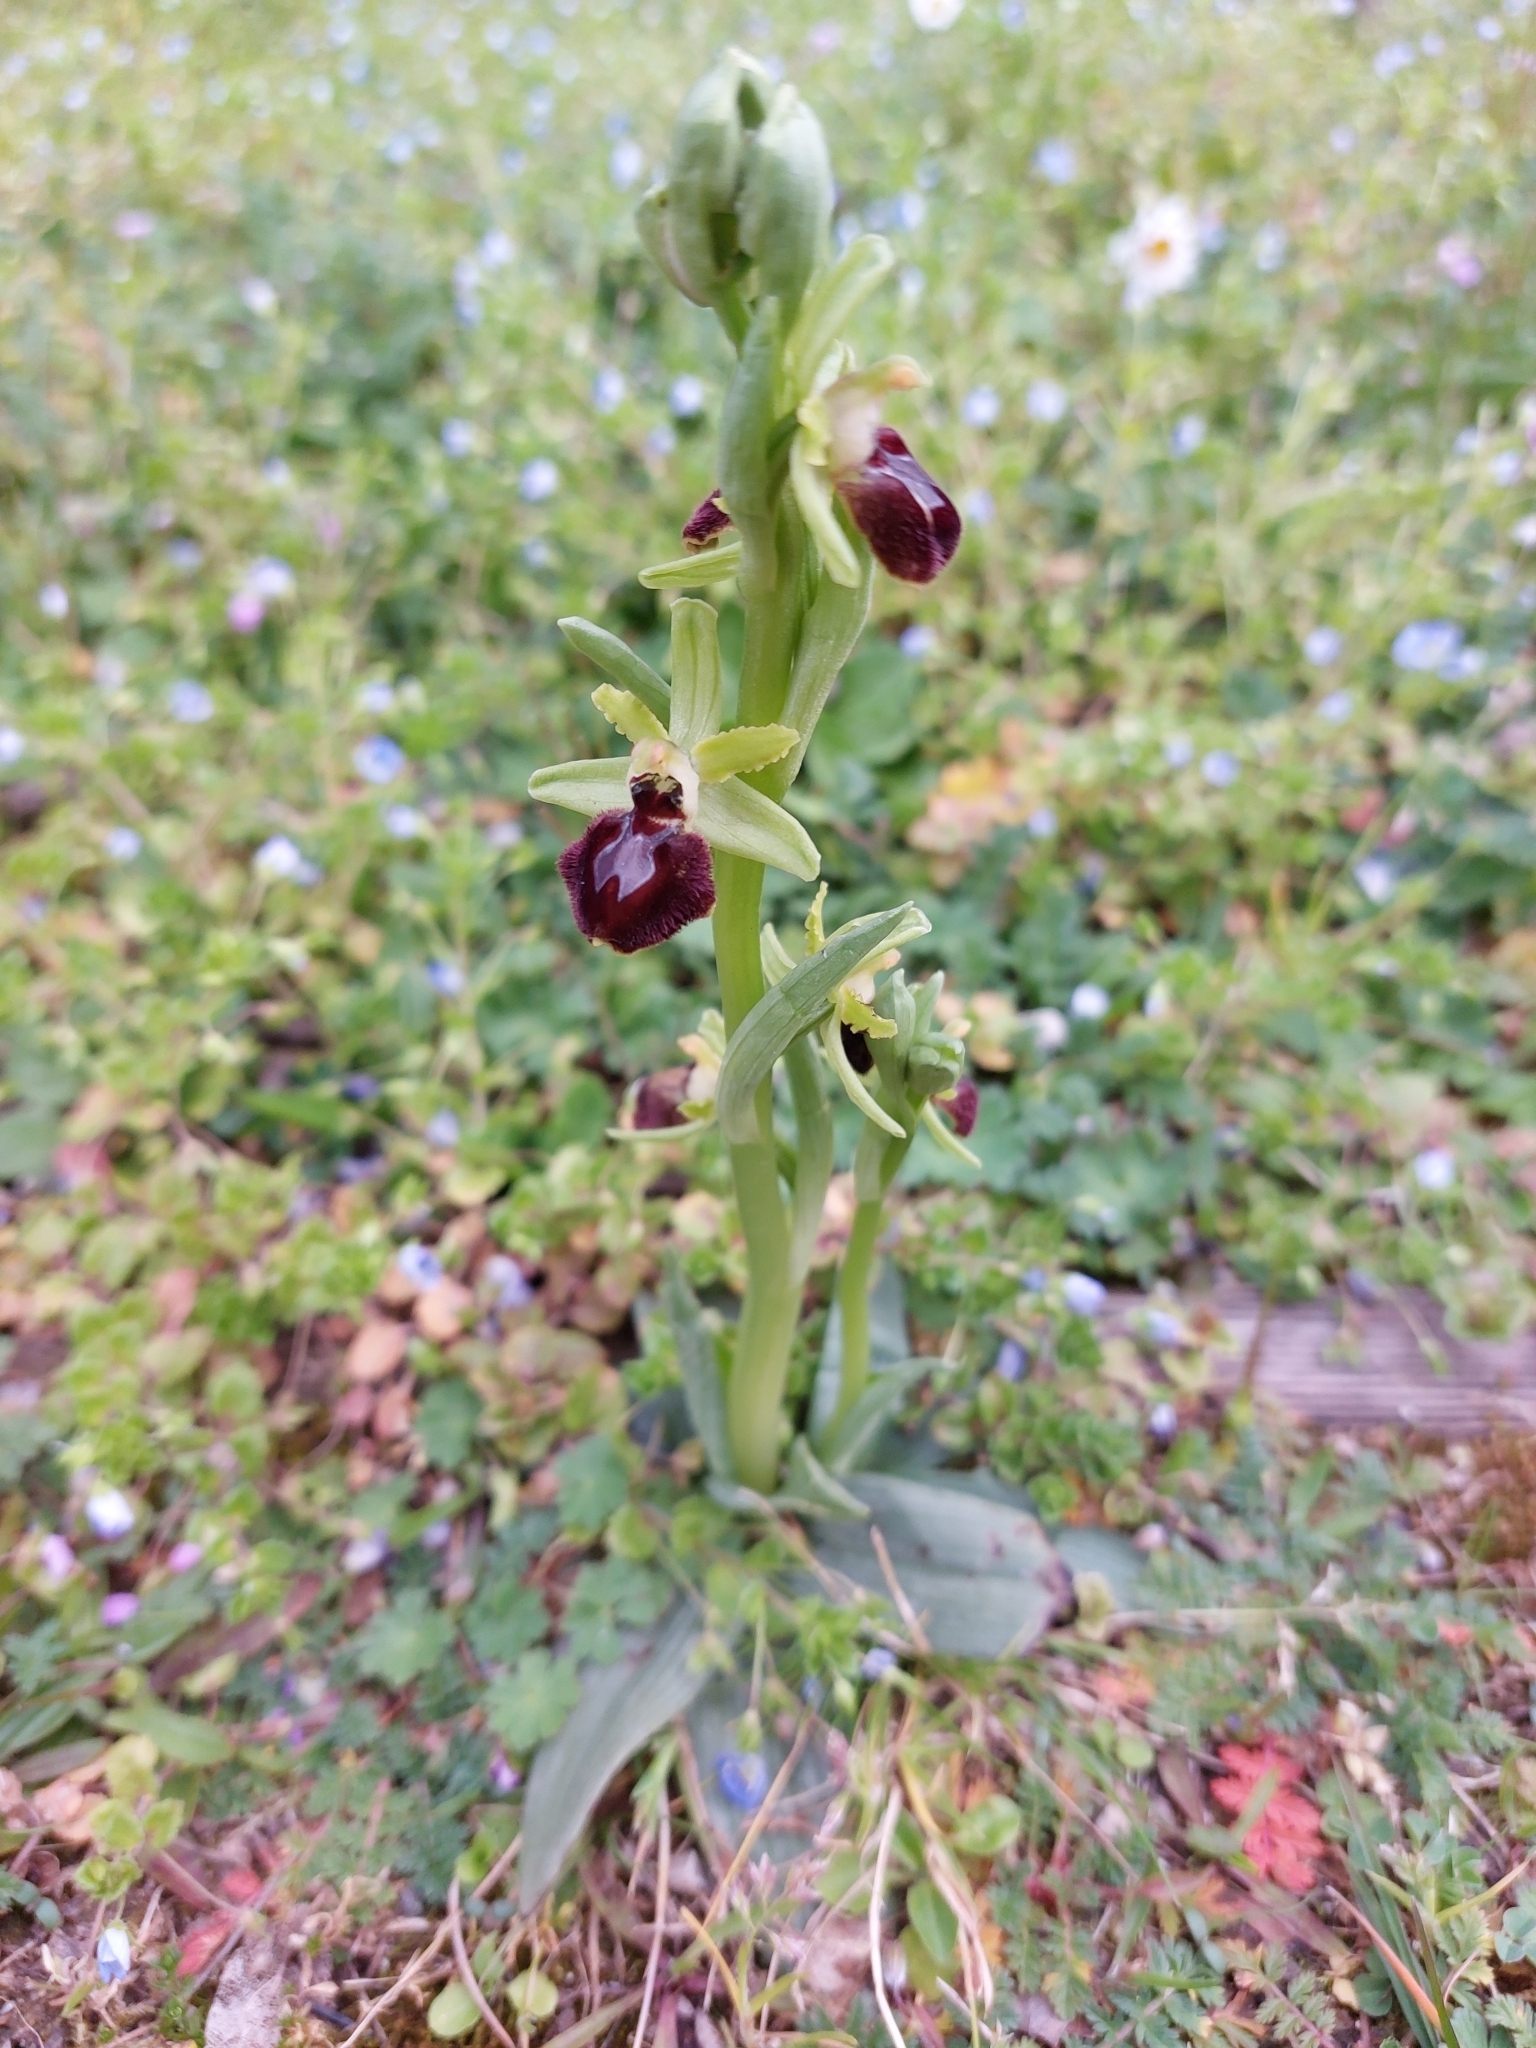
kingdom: Plantae
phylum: Tracheophyta
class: Liliopsida
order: Asparagales
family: Orchidaceae
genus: Ophrys
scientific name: Ophrys sphegodes
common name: Early spider-orchid
